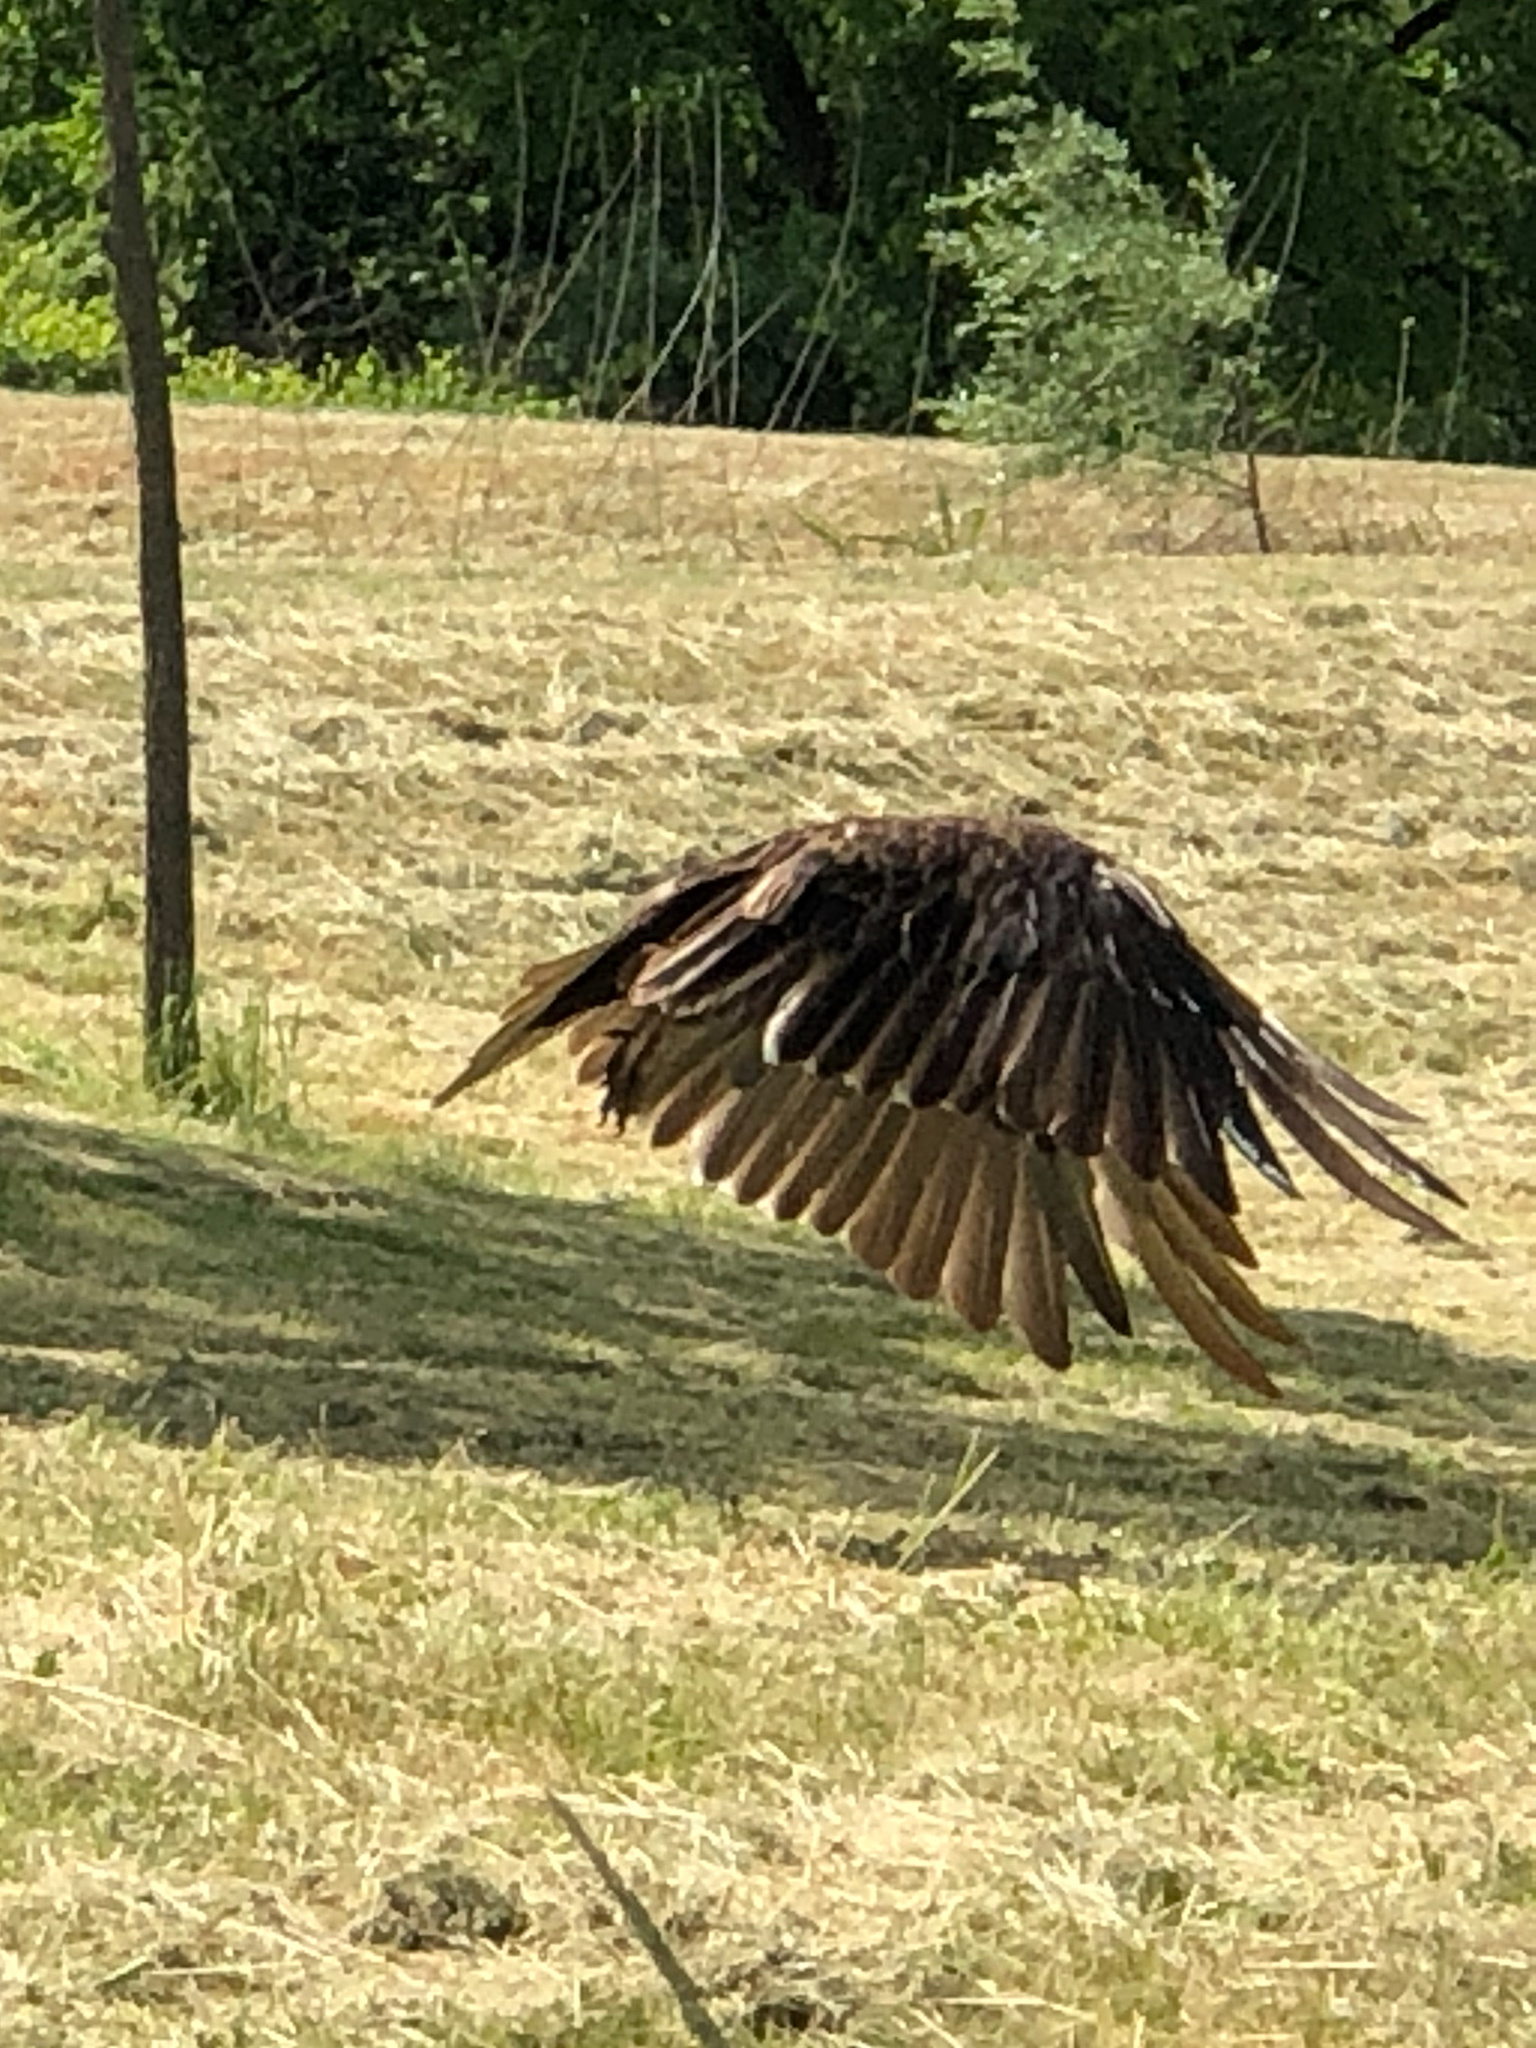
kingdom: Animalia
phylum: Chordata
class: Aves
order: Accipitriformes
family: Cathartidae
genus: Cathartes
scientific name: Cathartes aura
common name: Turkey vulture
